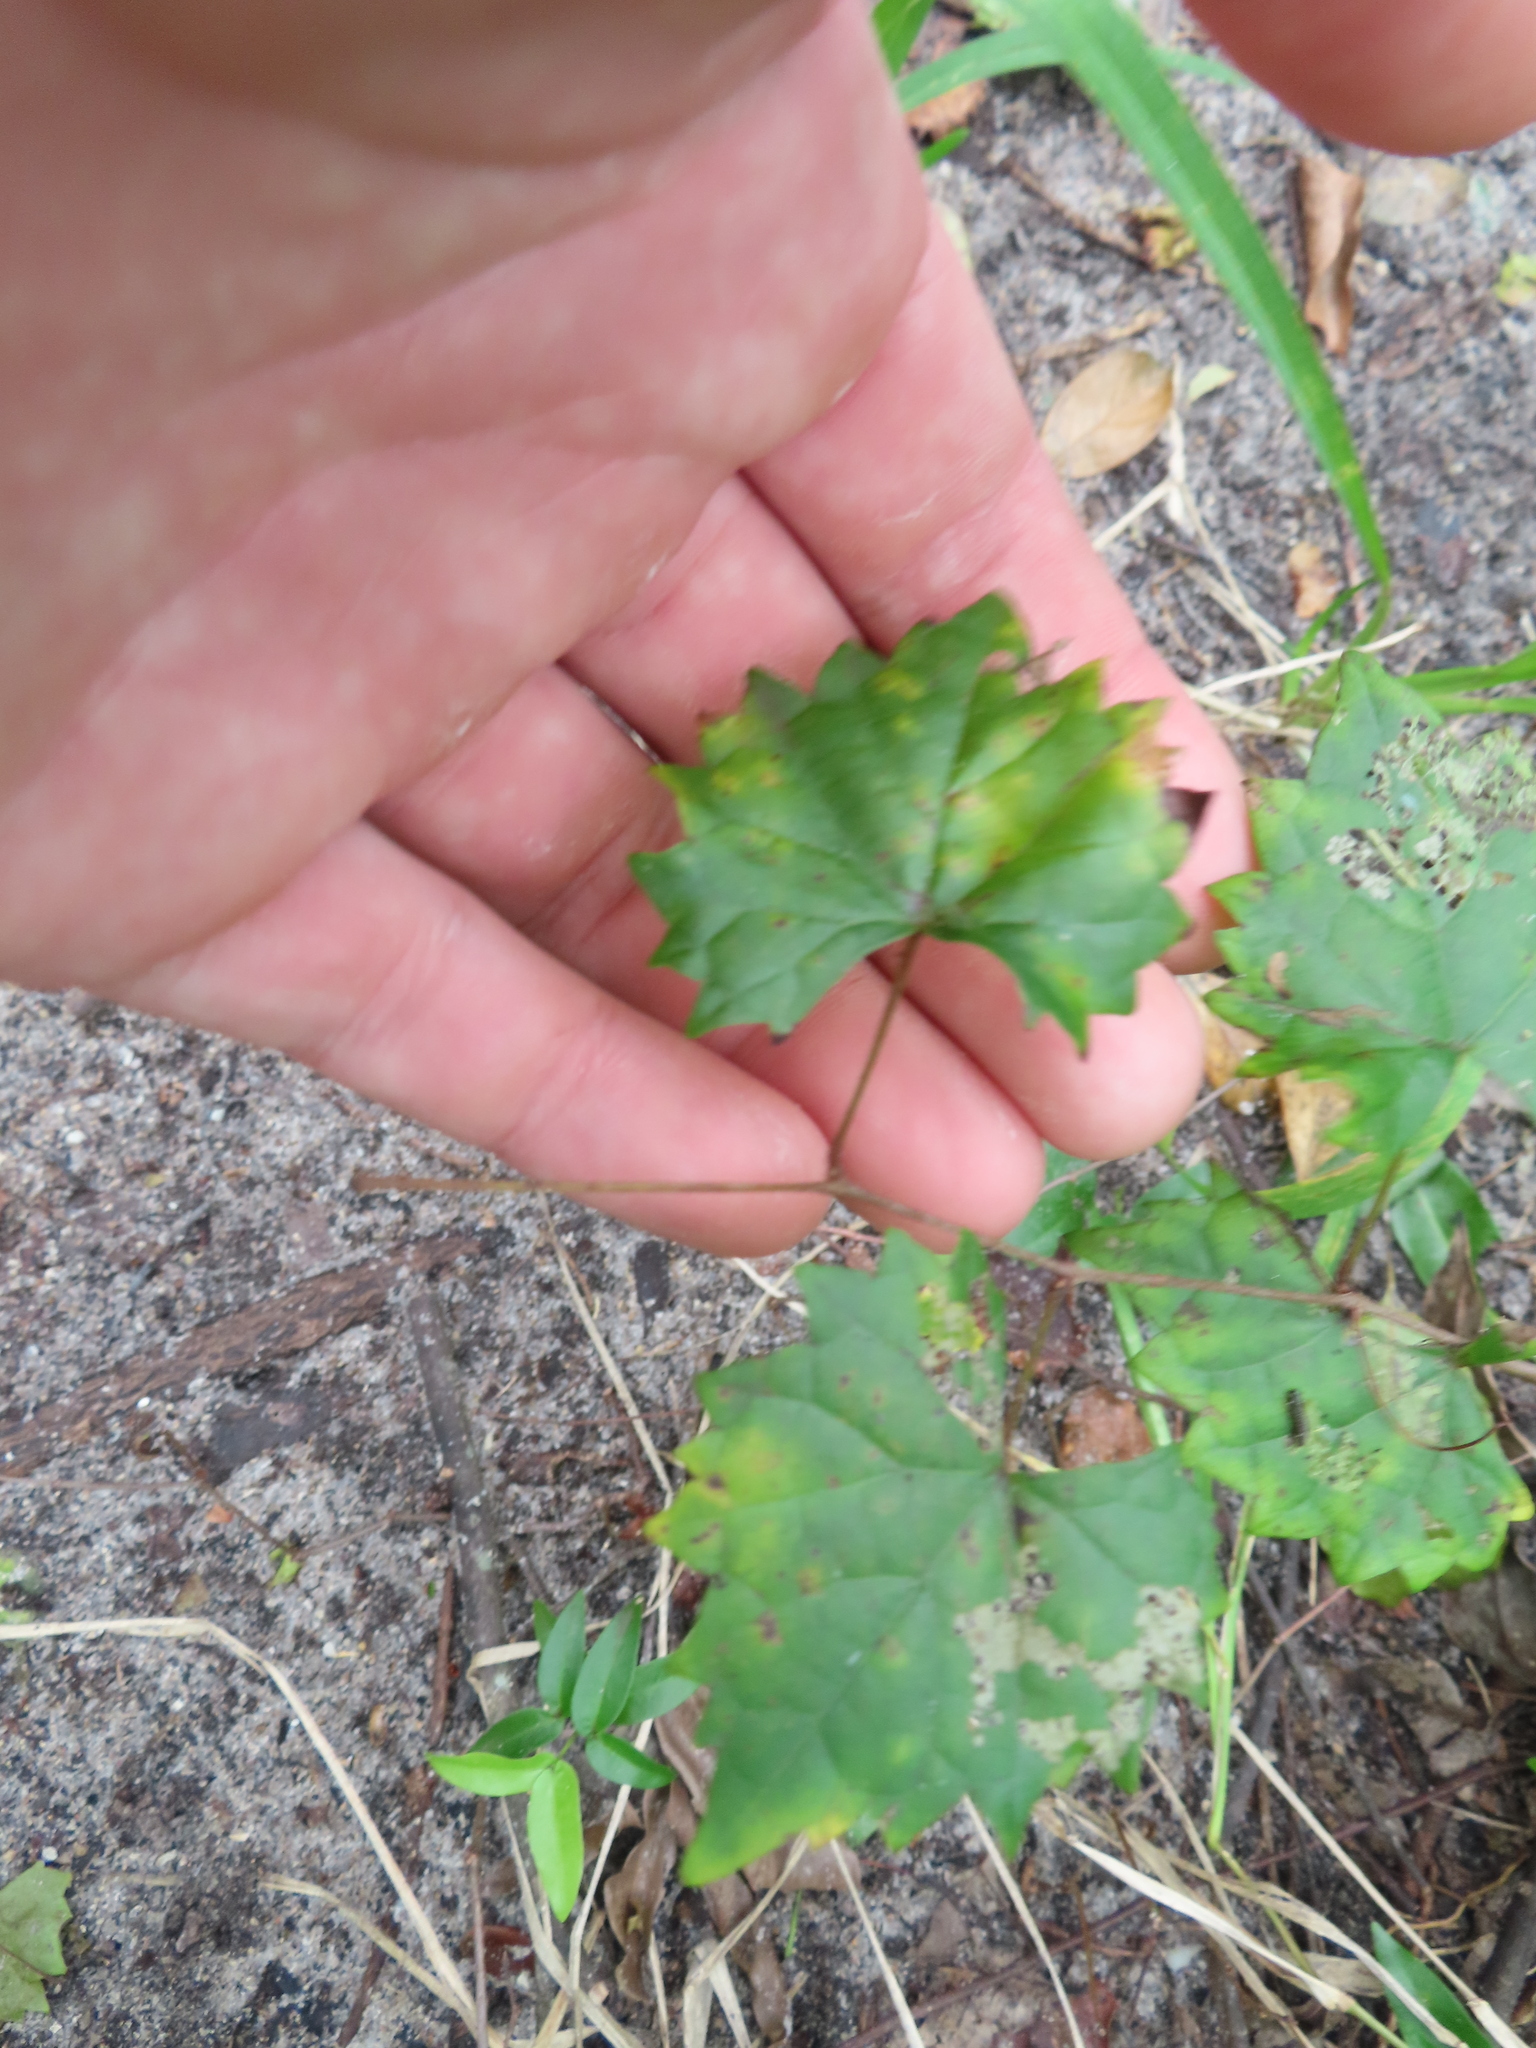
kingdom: Plantae
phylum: Tracheophyta
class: Magnoliopsida
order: Vitales
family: Vitaceae
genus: Vitis
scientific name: Vitis rotundifolia
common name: Muscadine grape
